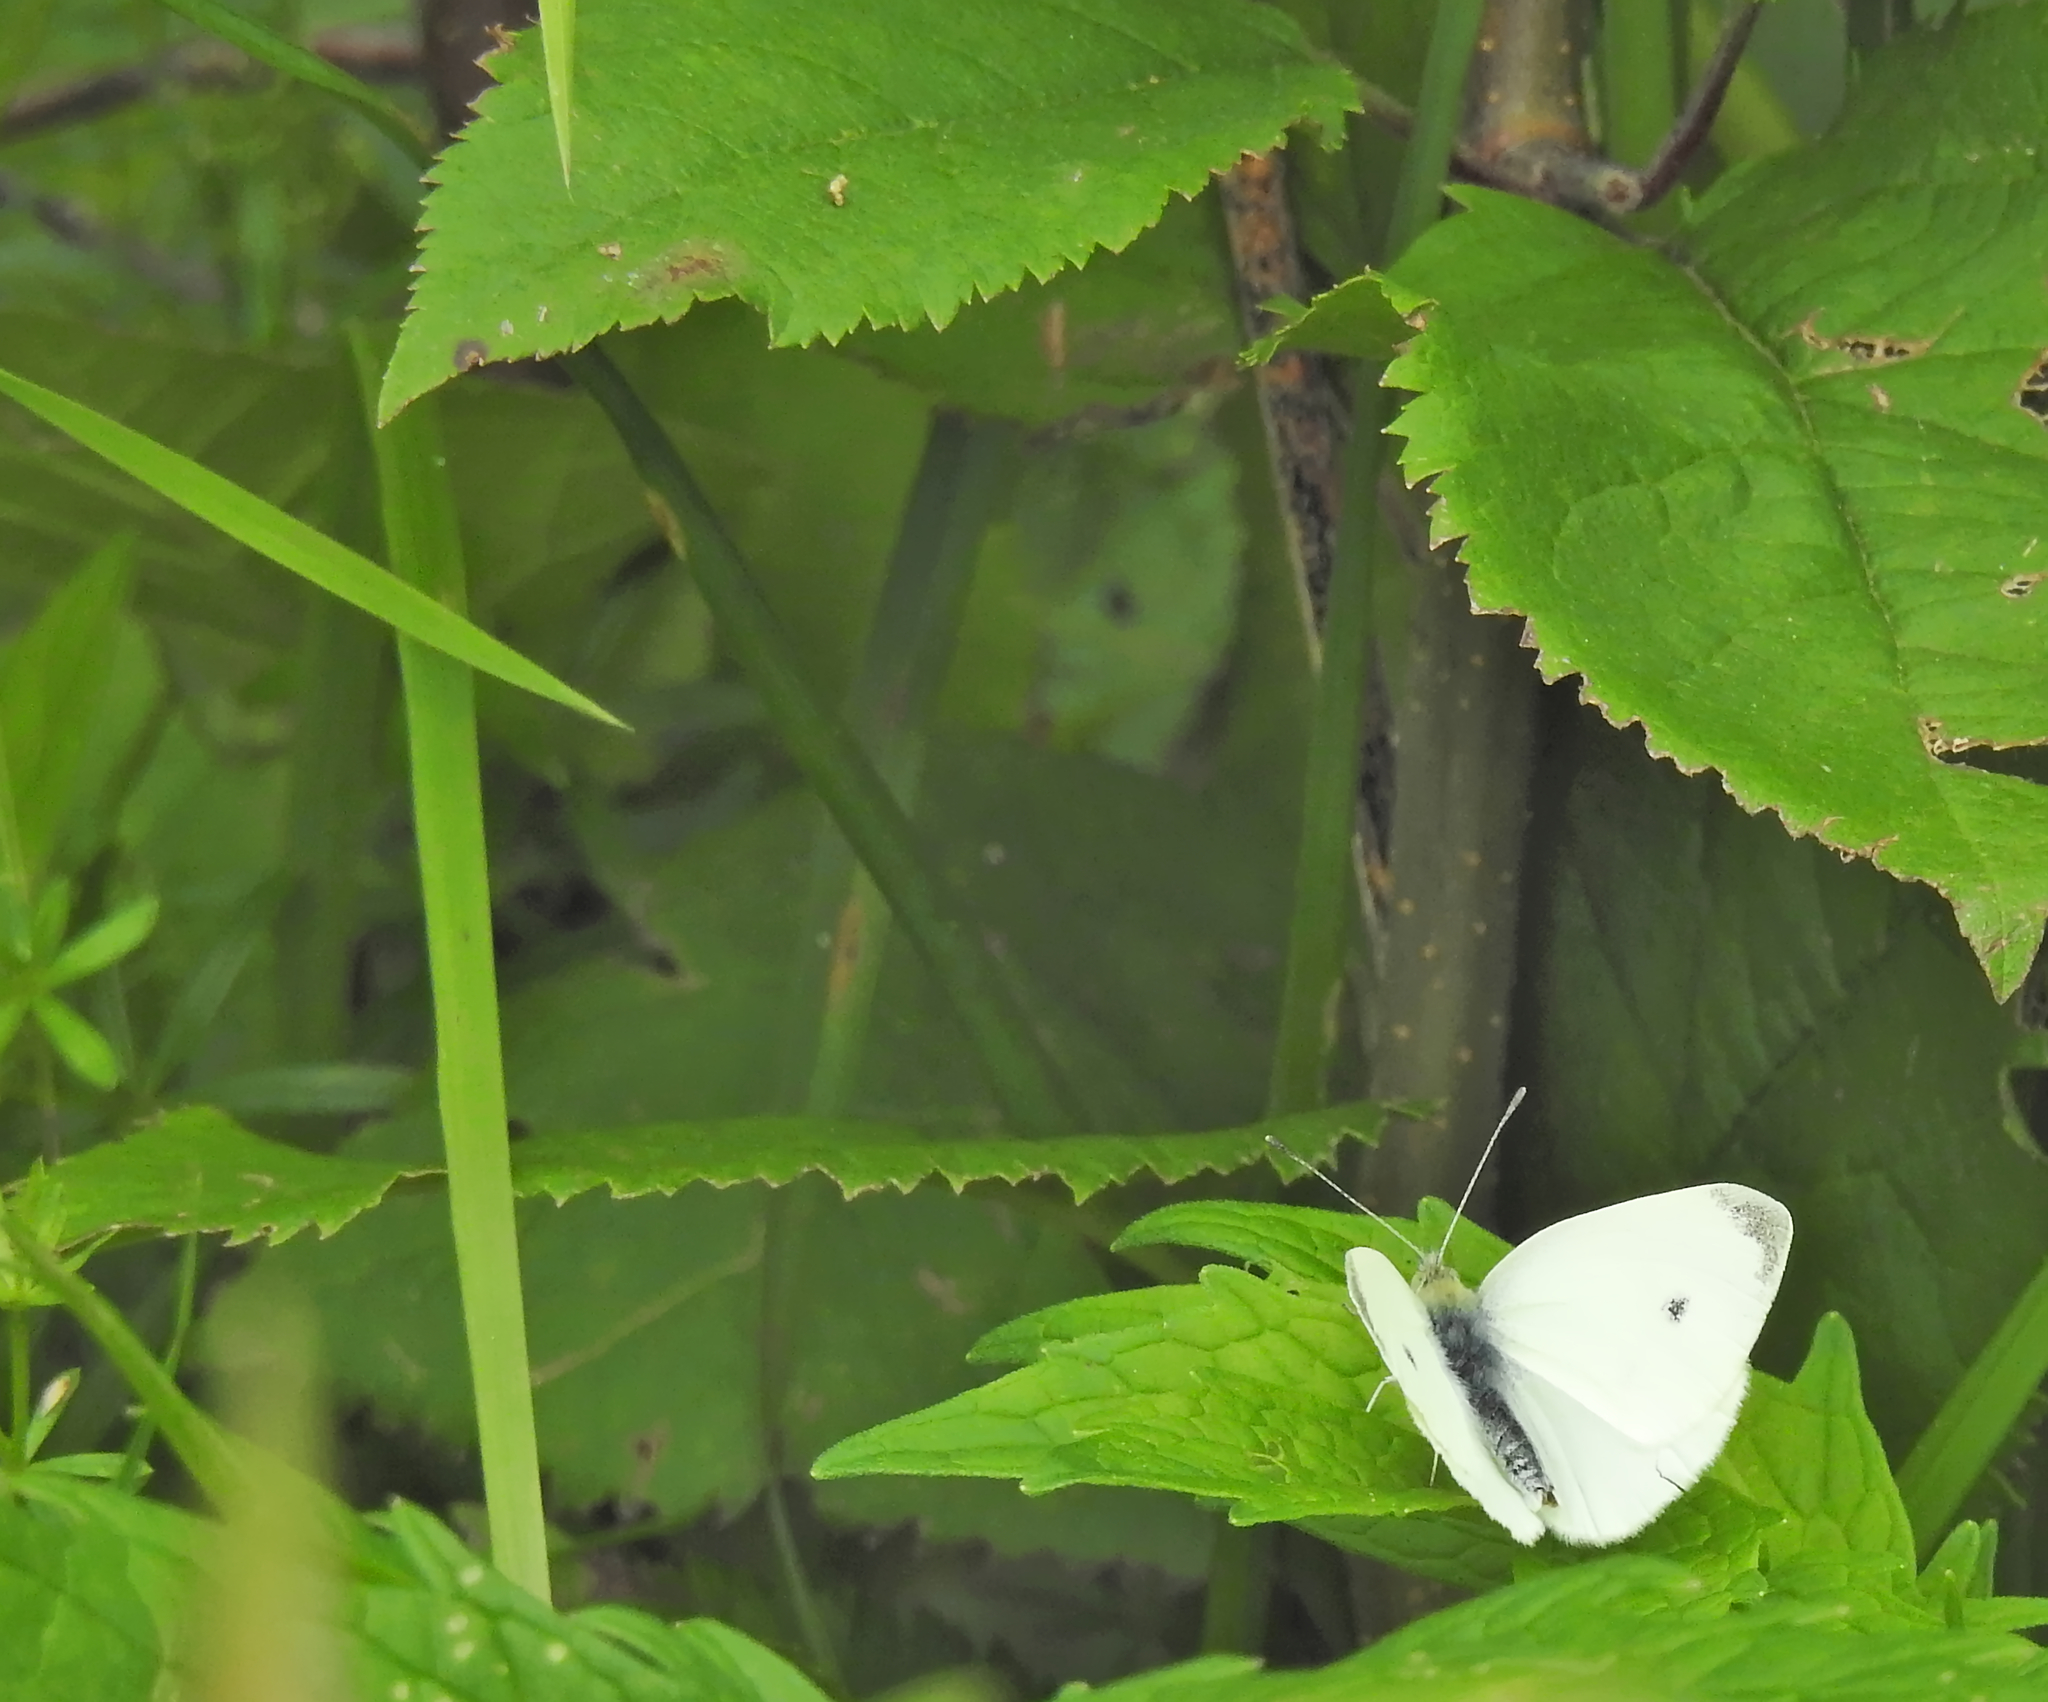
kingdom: Animalia
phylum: Arthropoda
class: Insecta
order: Lepidoptera
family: Pieridae
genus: Pieris
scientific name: Pieris rapae
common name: Small white
